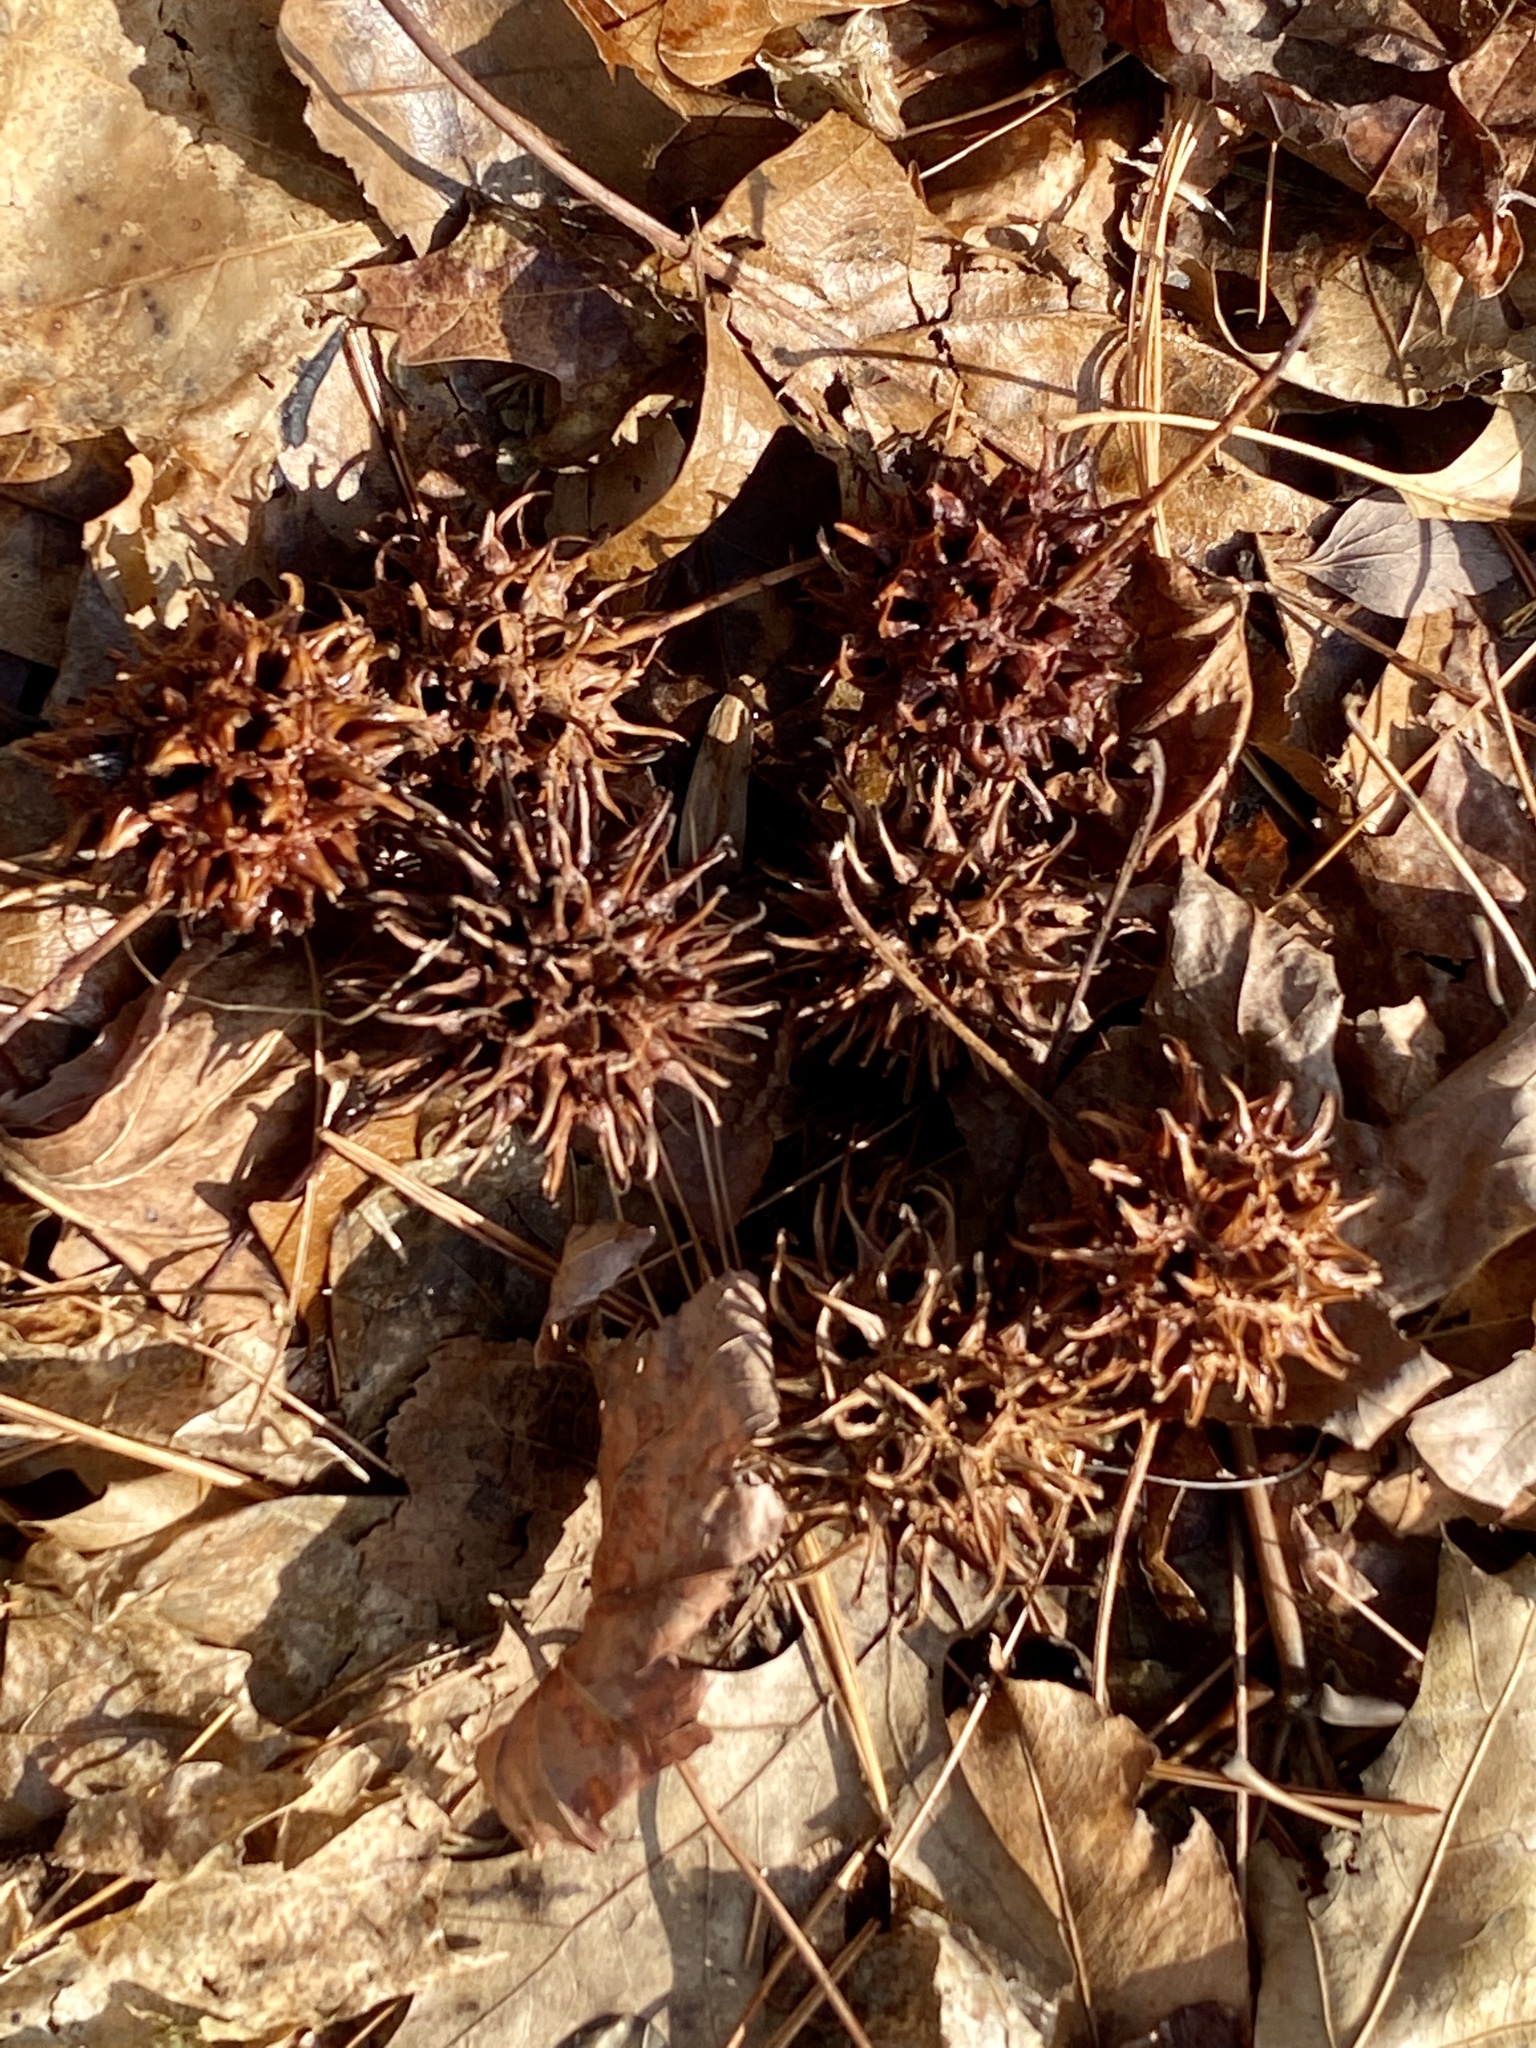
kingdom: Plantae
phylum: Tracheophyta
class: Magnoliopsida
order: Saxifragales
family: Altingiaceae
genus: Liquidambar
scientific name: Liquidambar styraciflua
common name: Sweet gum
